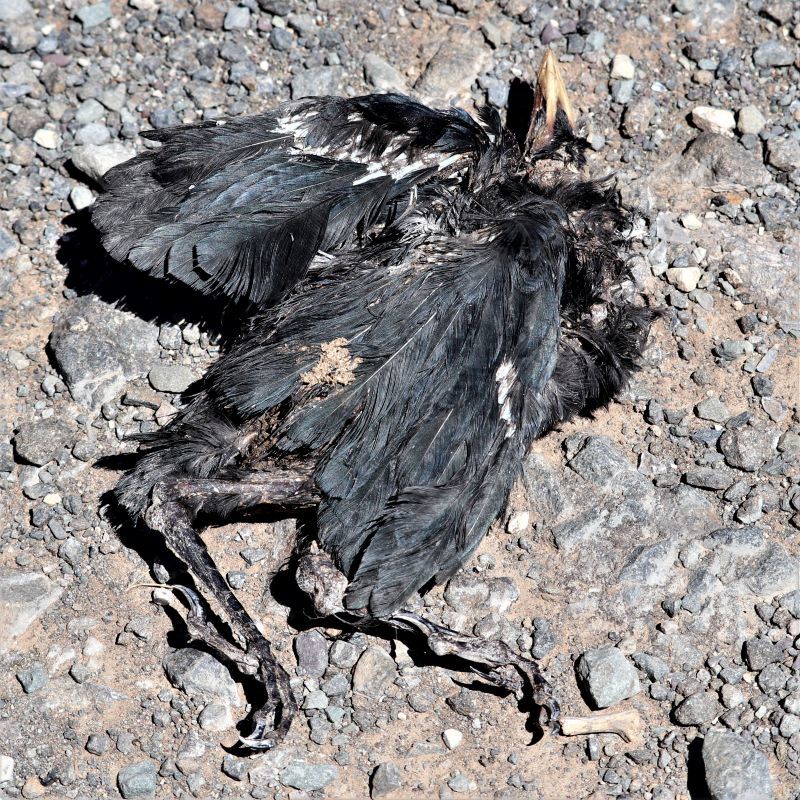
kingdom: Animalia
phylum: Chordata
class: Aves
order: Passeriformes
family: Sturnidae
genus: Lamprotornis
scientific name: Lamprotornis bicolor
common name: Pied starling
